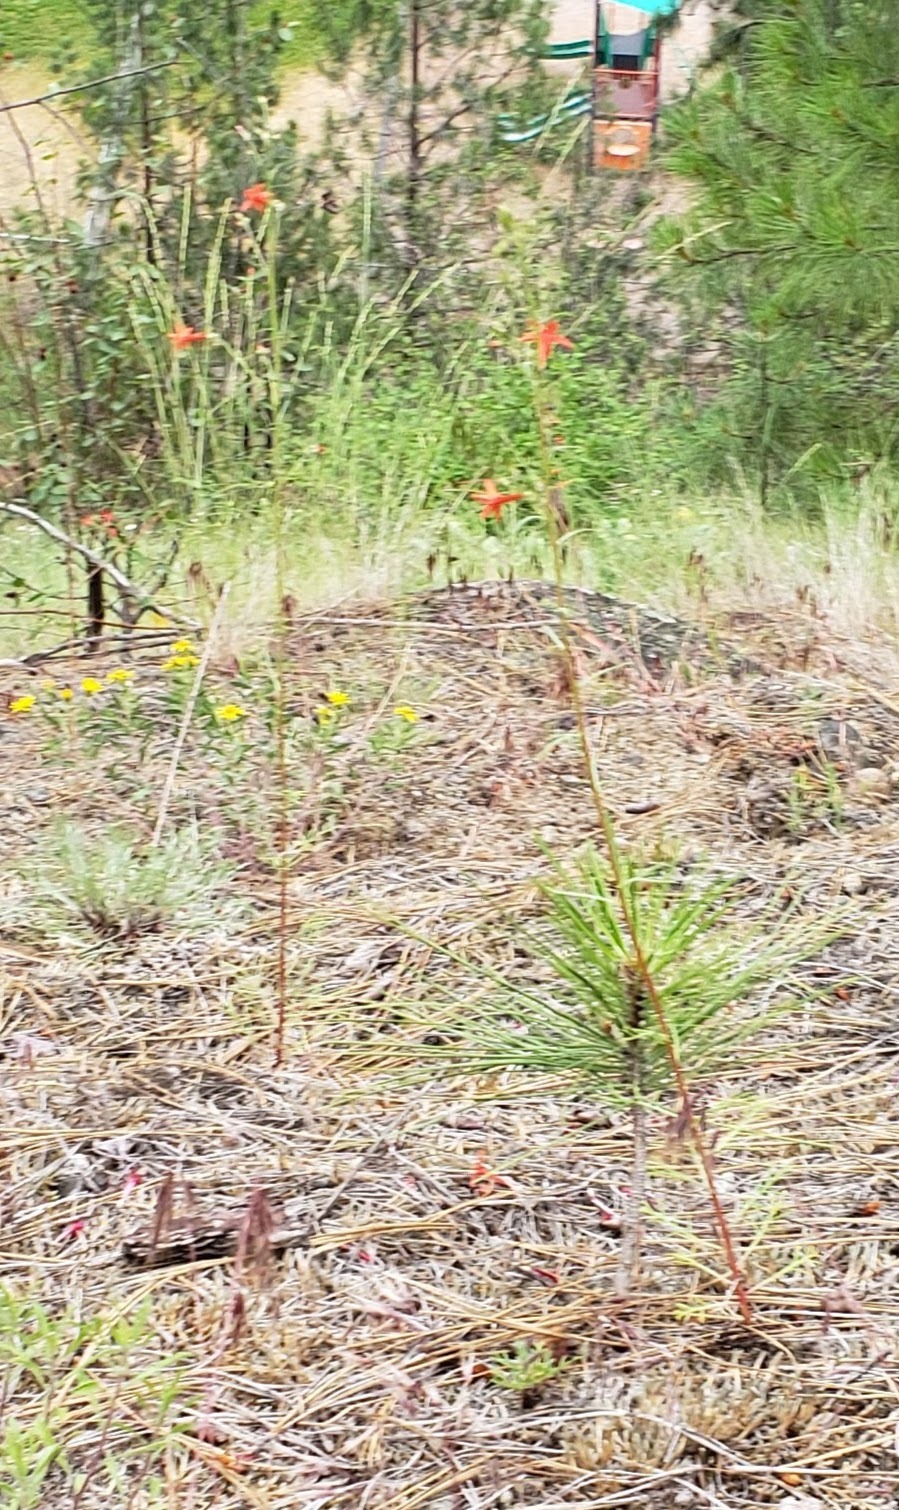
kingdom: Plantae
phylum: Tracheophyta
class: Magnoliopsida
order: Ericales
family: Polemoniaceae
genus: Ipomopsis
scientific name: Ipomopsis aggregata
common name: Scarlet gilia
